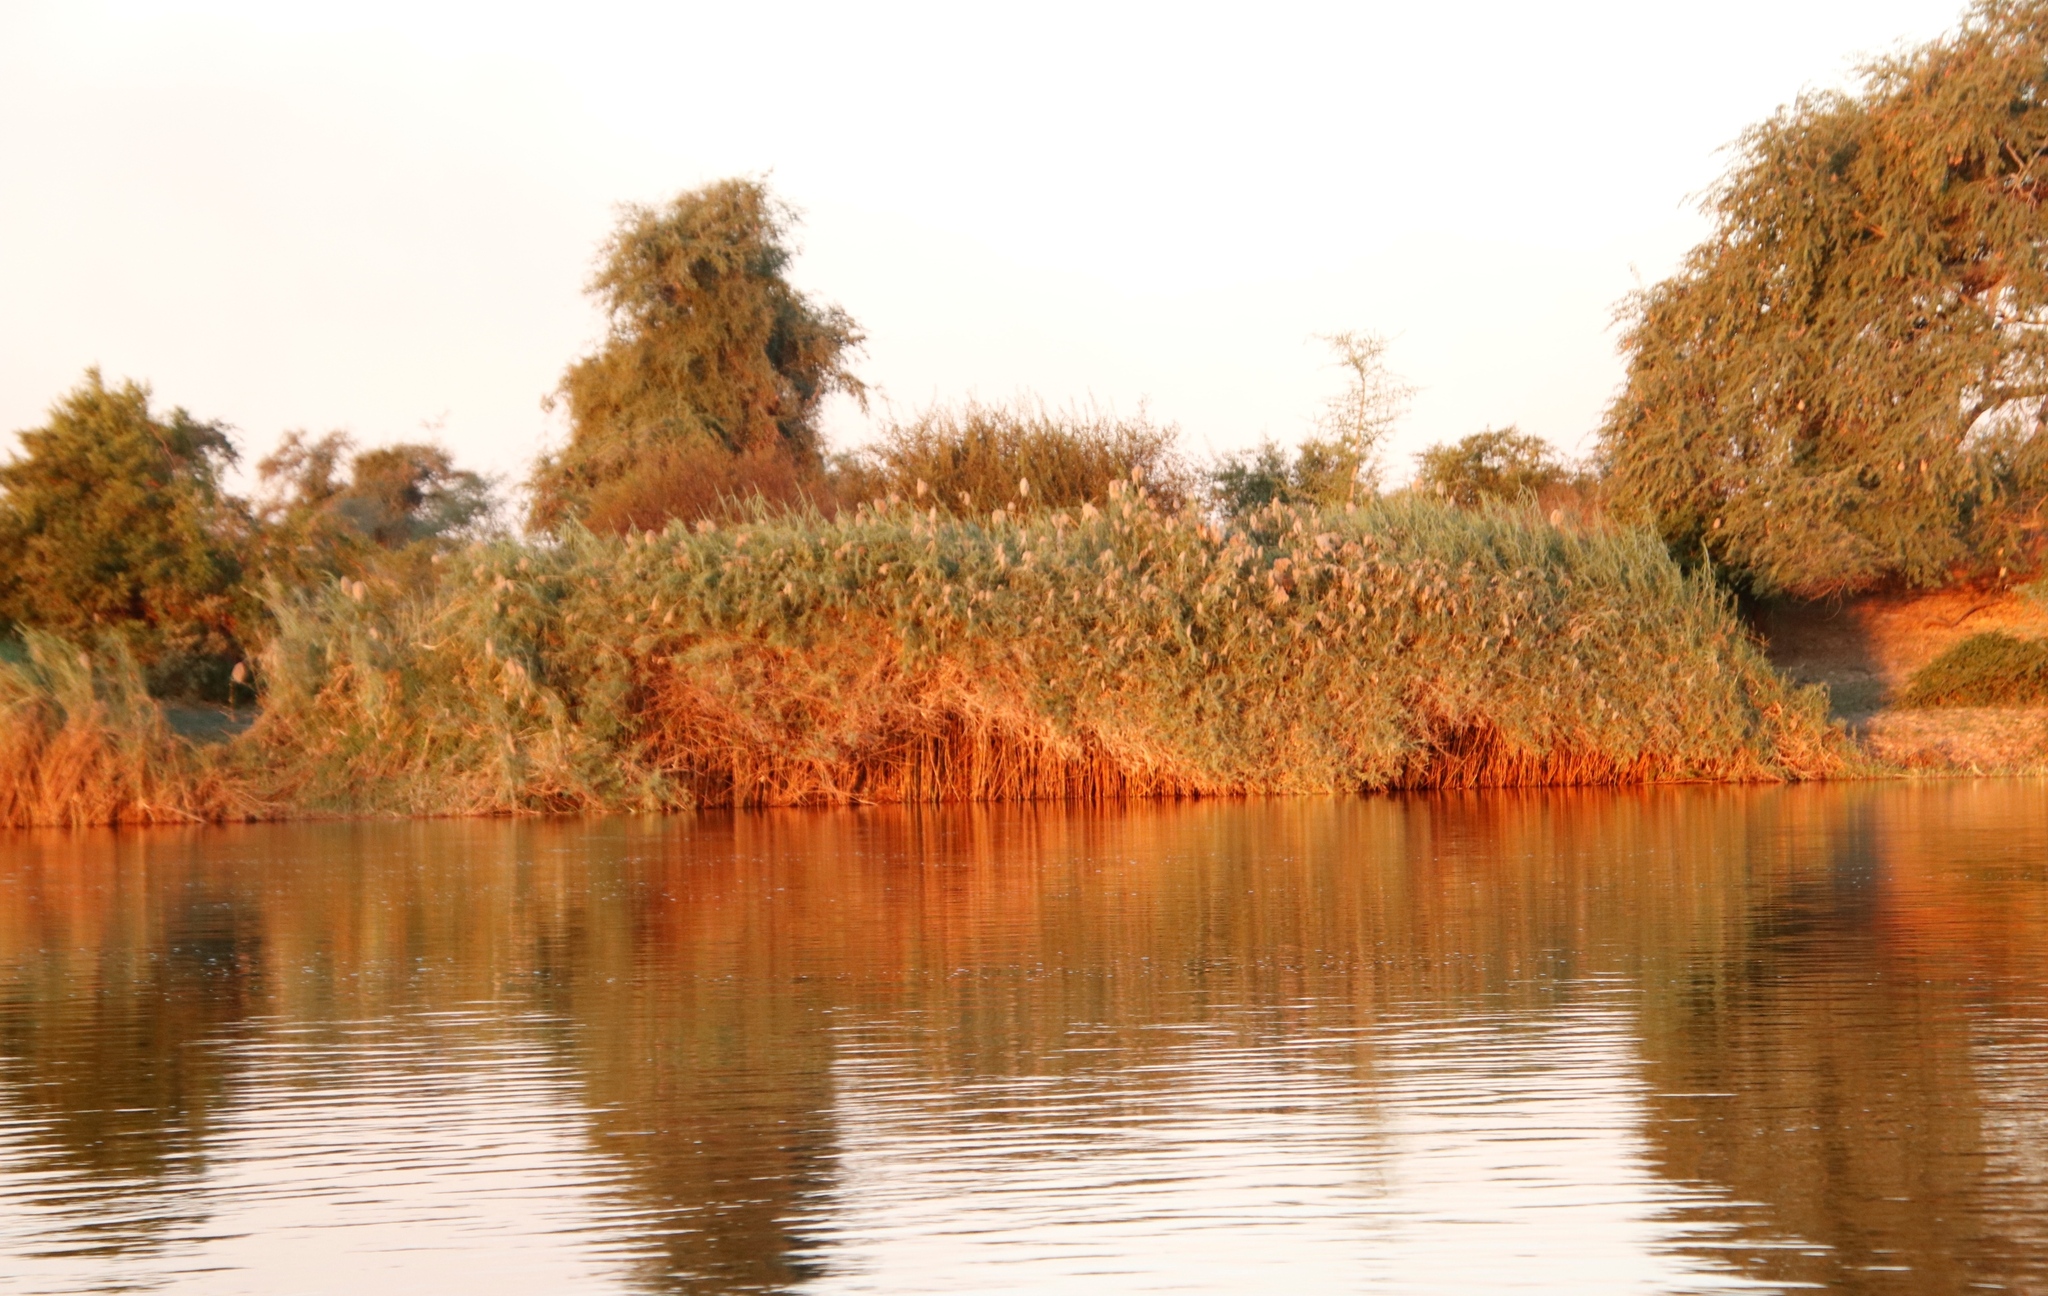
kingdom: Plantae
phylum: Tracheophyta
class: Liliopsida
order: Poales
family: Poaceae
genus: Phragmites
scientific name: Phragmites australis
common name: Common reed
